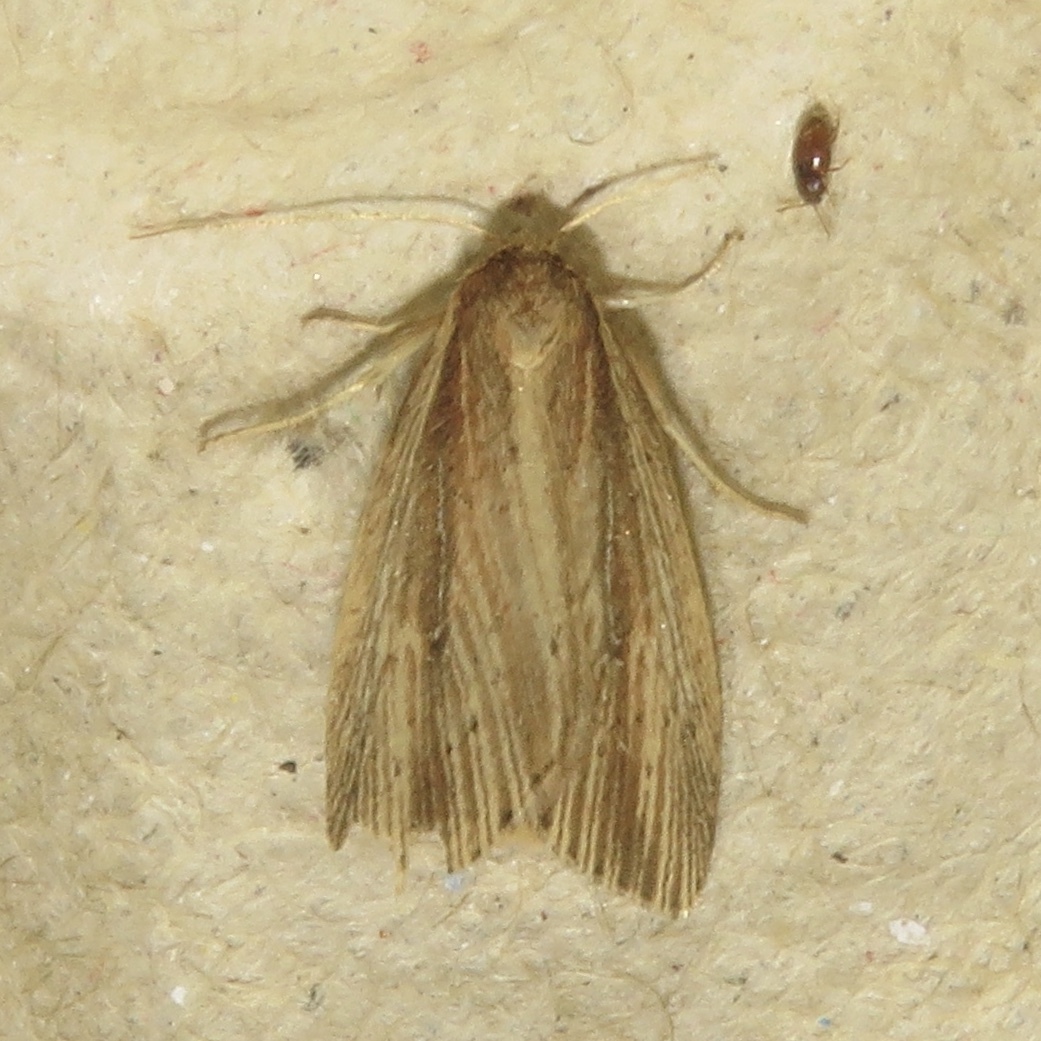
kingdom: Animalia
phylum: Arthropoda
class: Insecta
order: Lepidoptera
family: Noctuidae
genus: Photedes
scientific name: Photedes defecta
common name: Narrow-winged borer moth
